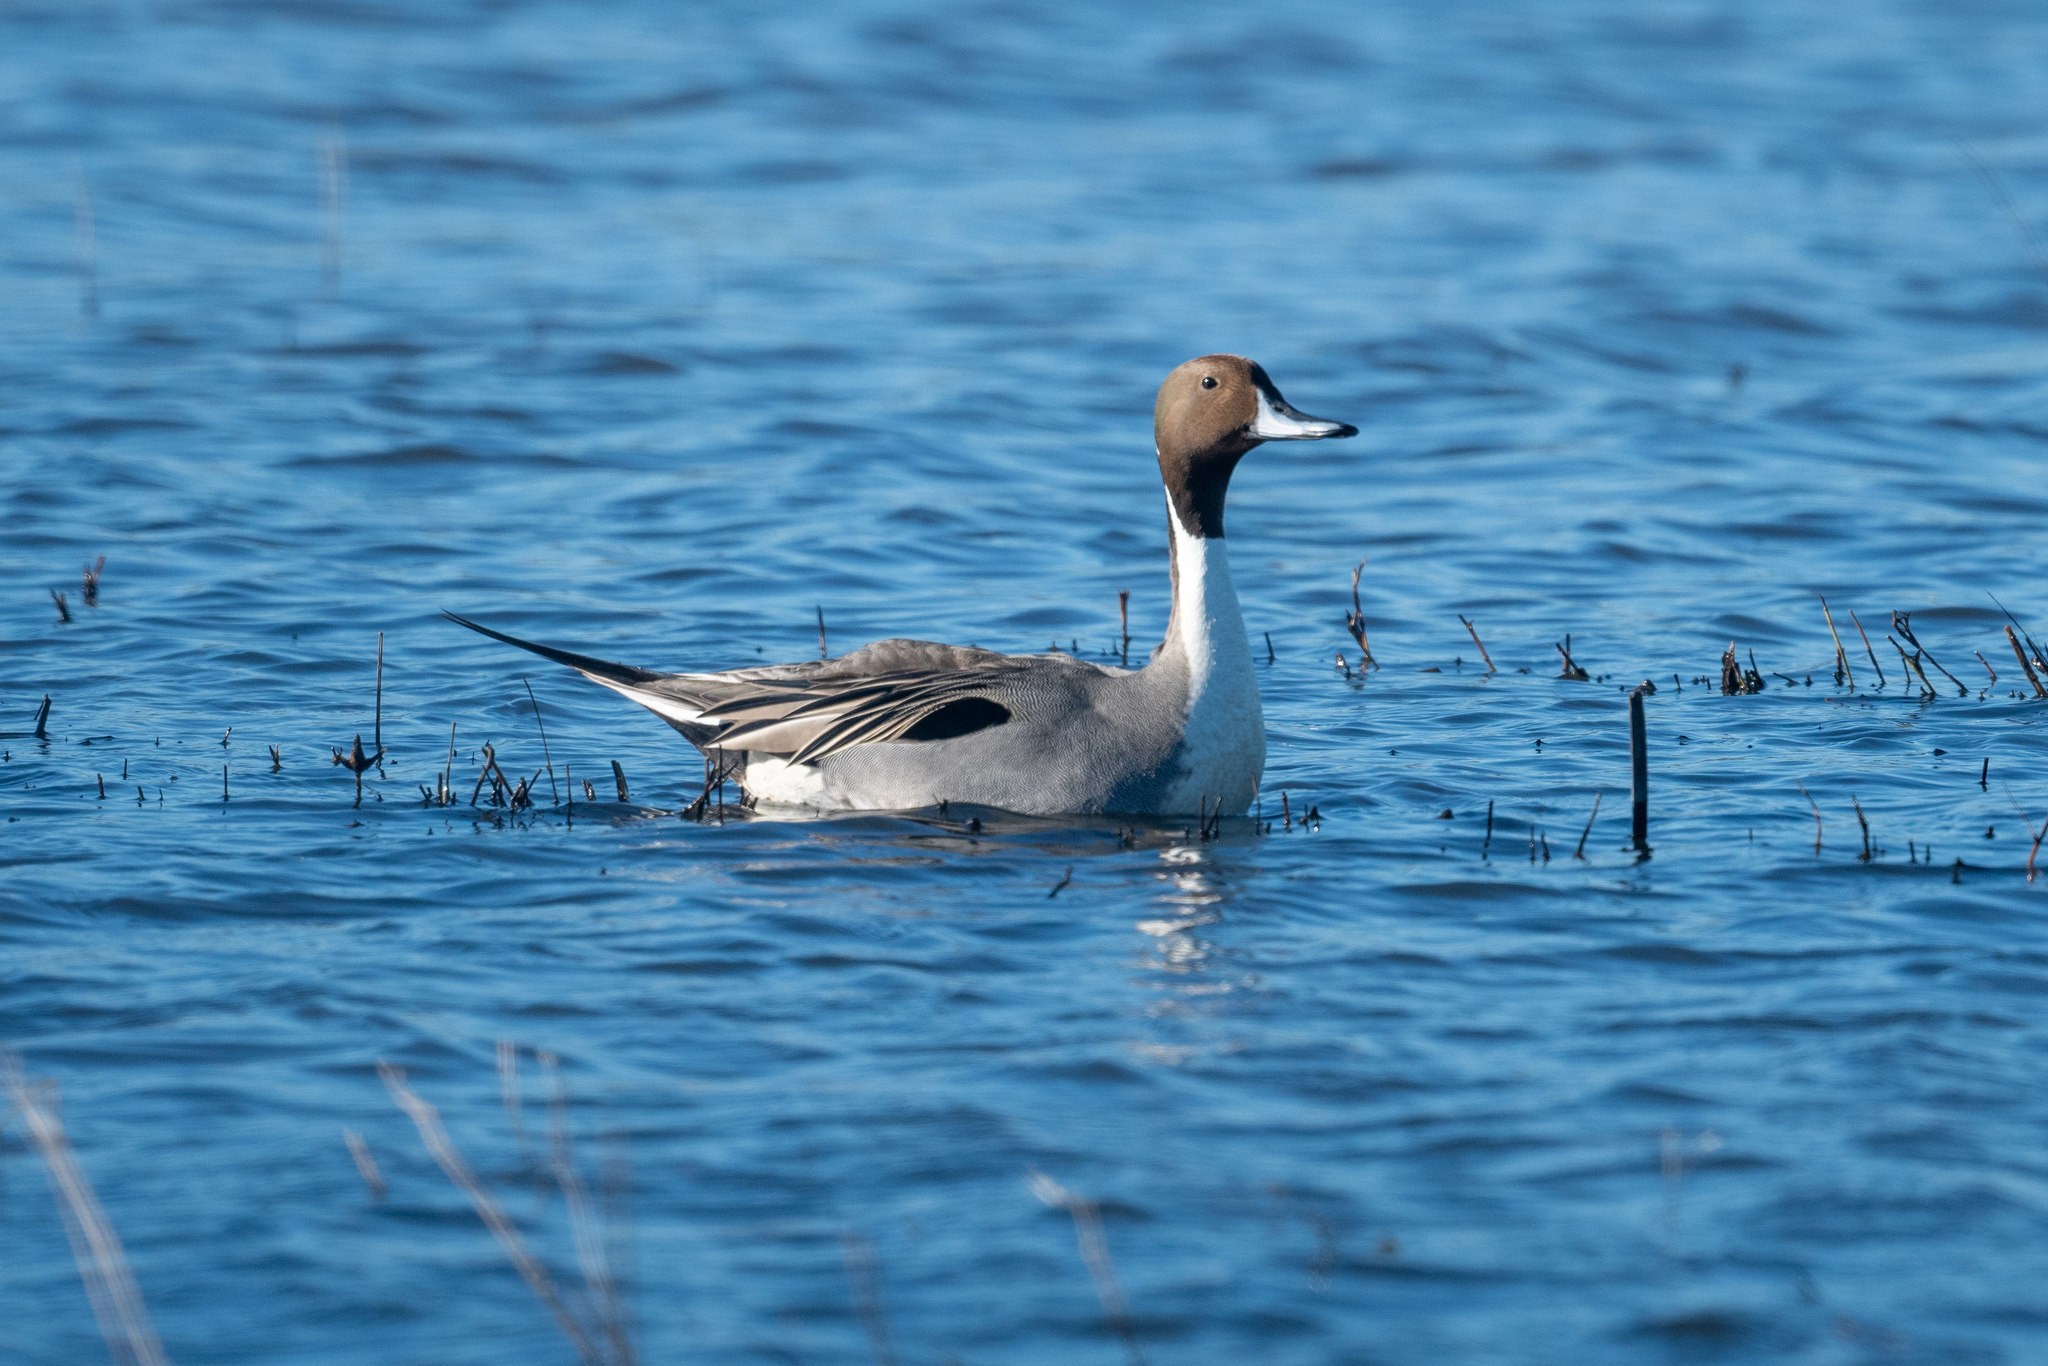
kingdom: Animalia
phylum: Chordata
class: Aves
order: Anseriformes
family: Anatidae
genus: Anas
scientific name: Anas acuta
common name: Northern pintail
